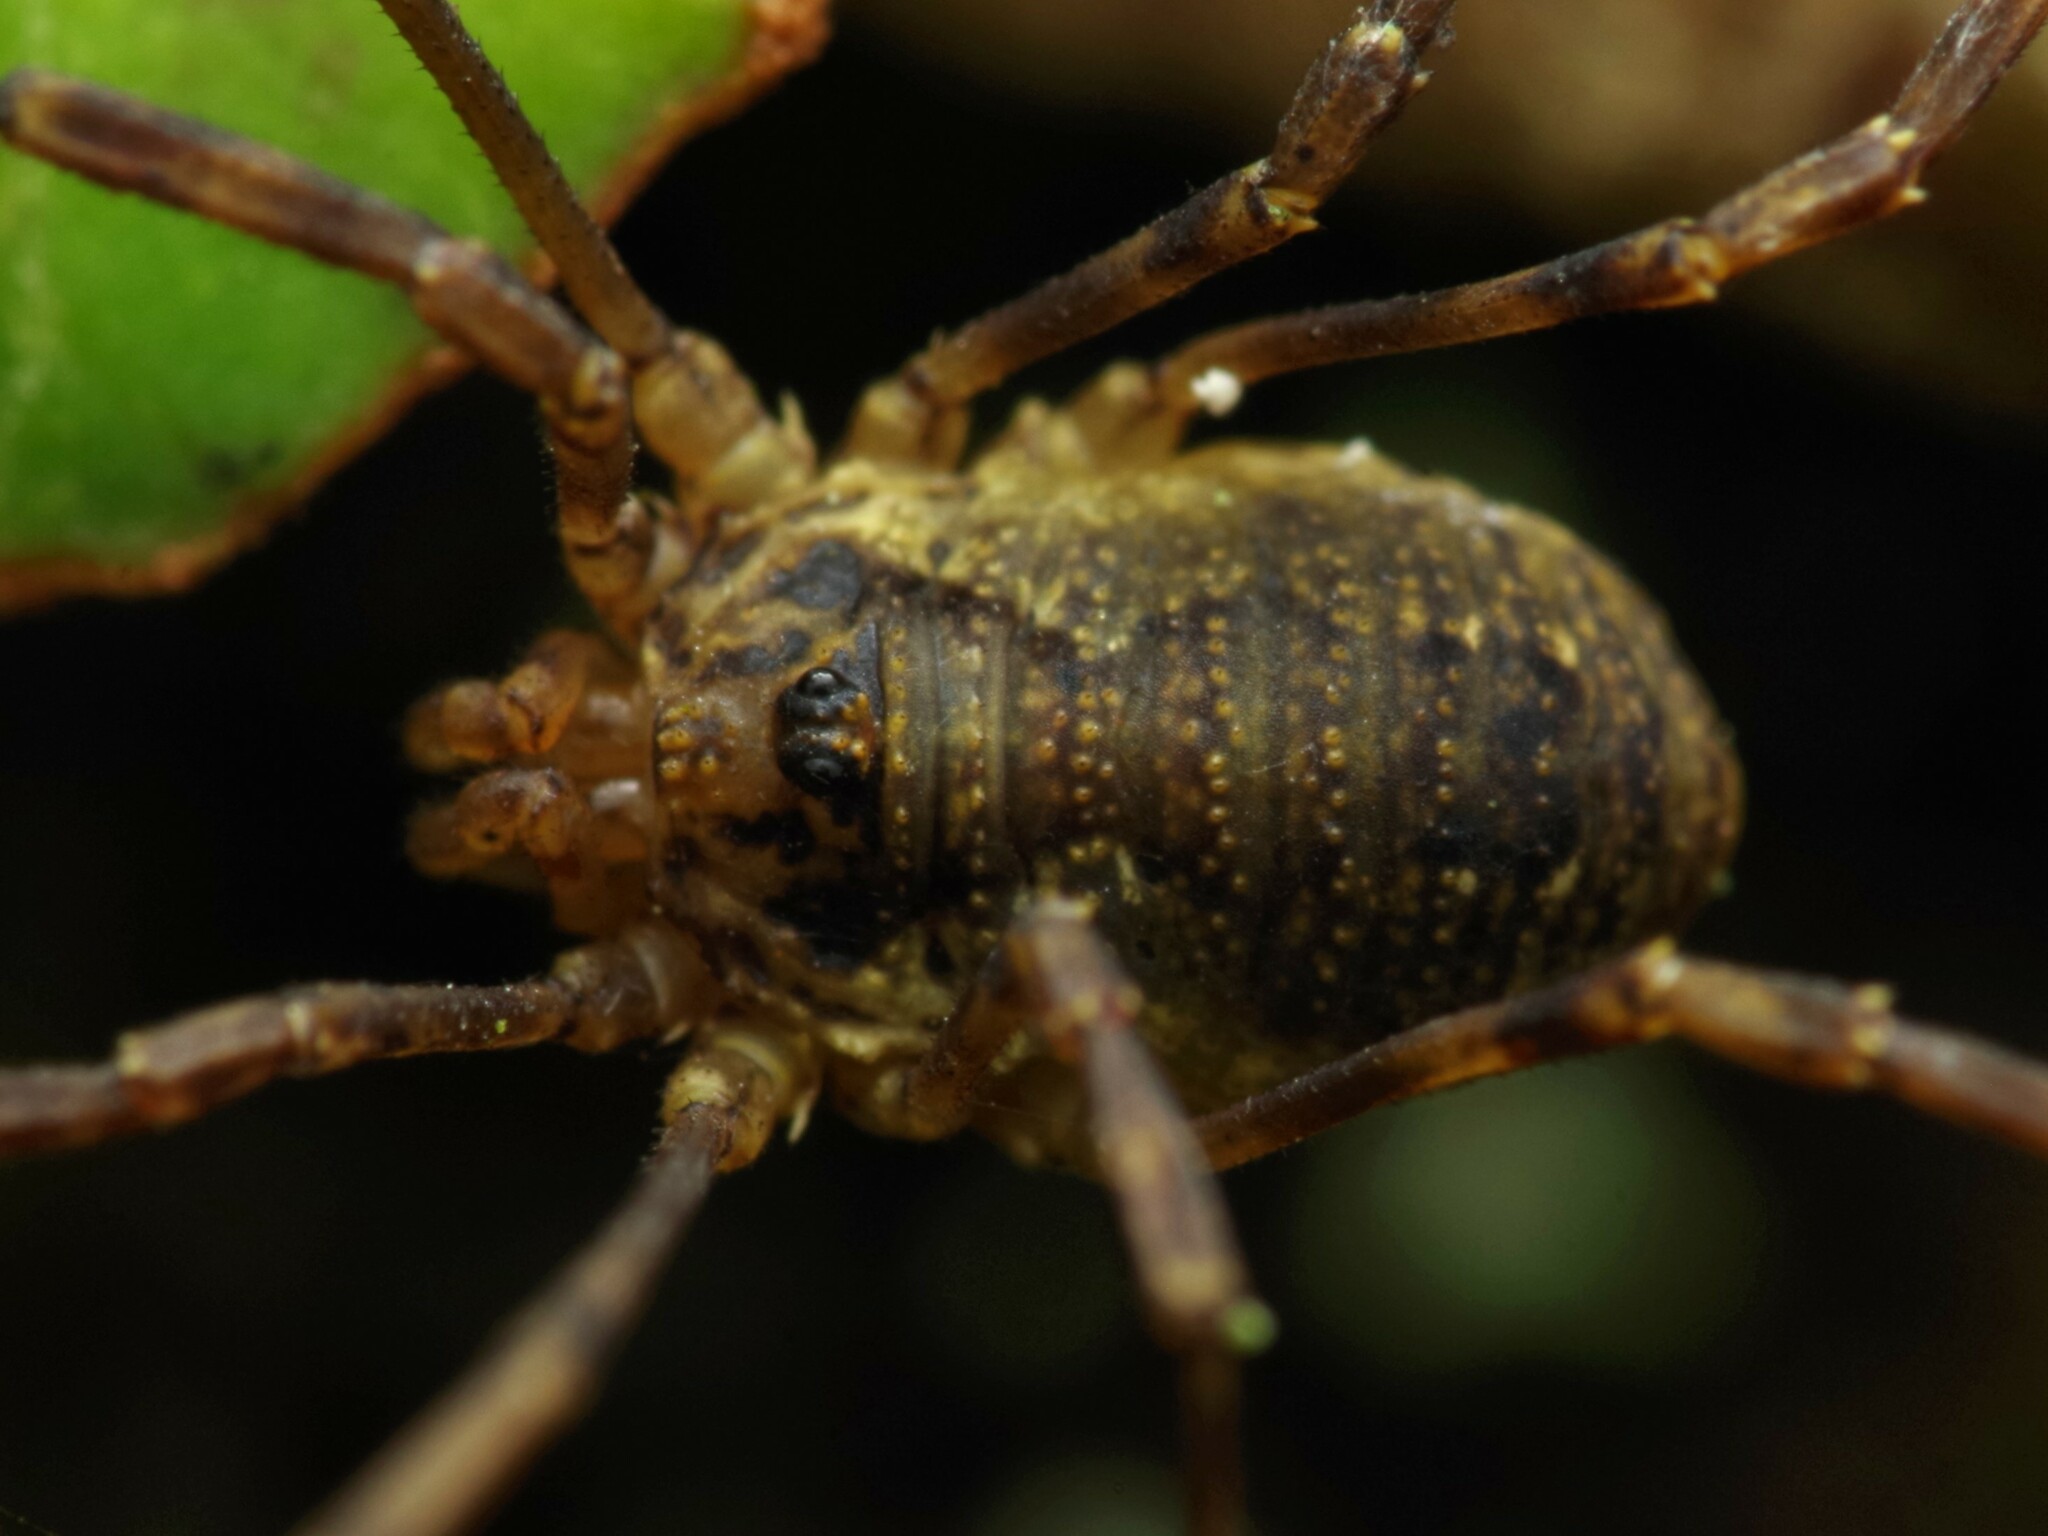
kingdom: Animalia
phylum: Arthropoda
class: Arachnida
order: Opiliones
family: Phalangiidae
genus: Oligolophus
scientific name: Oligolophus hansenii
